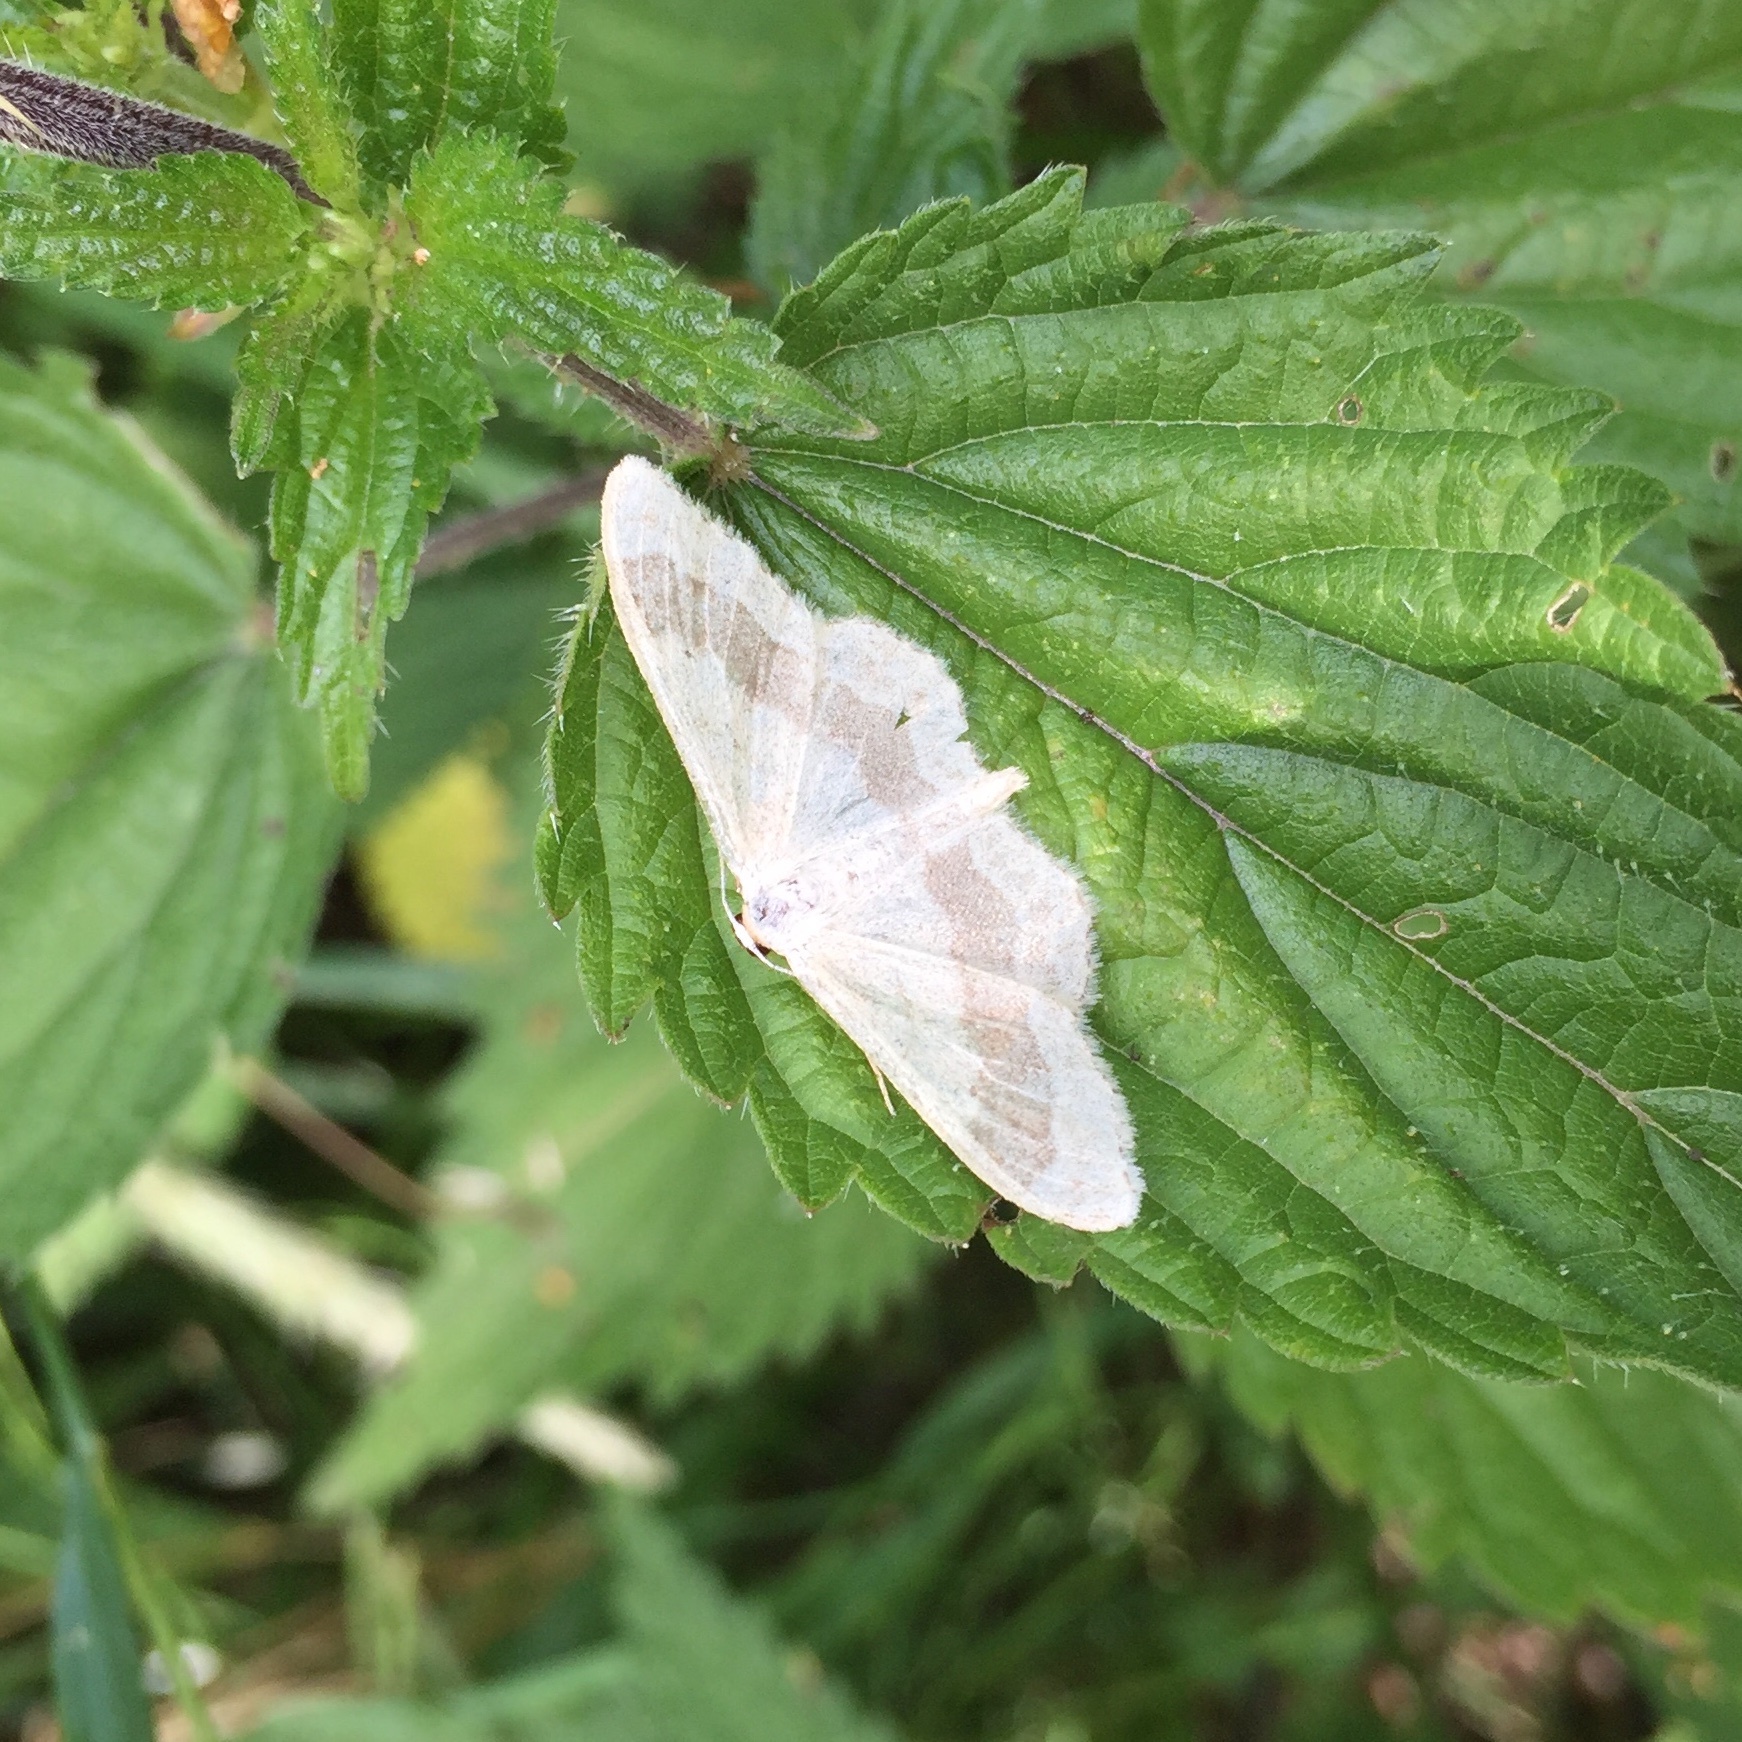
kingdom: Animalia
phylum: Arthropoda
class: Insecta
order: Lepidoptera
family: Geometridae
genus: Idaea
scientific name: Idaea aversata
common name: Riband wave
